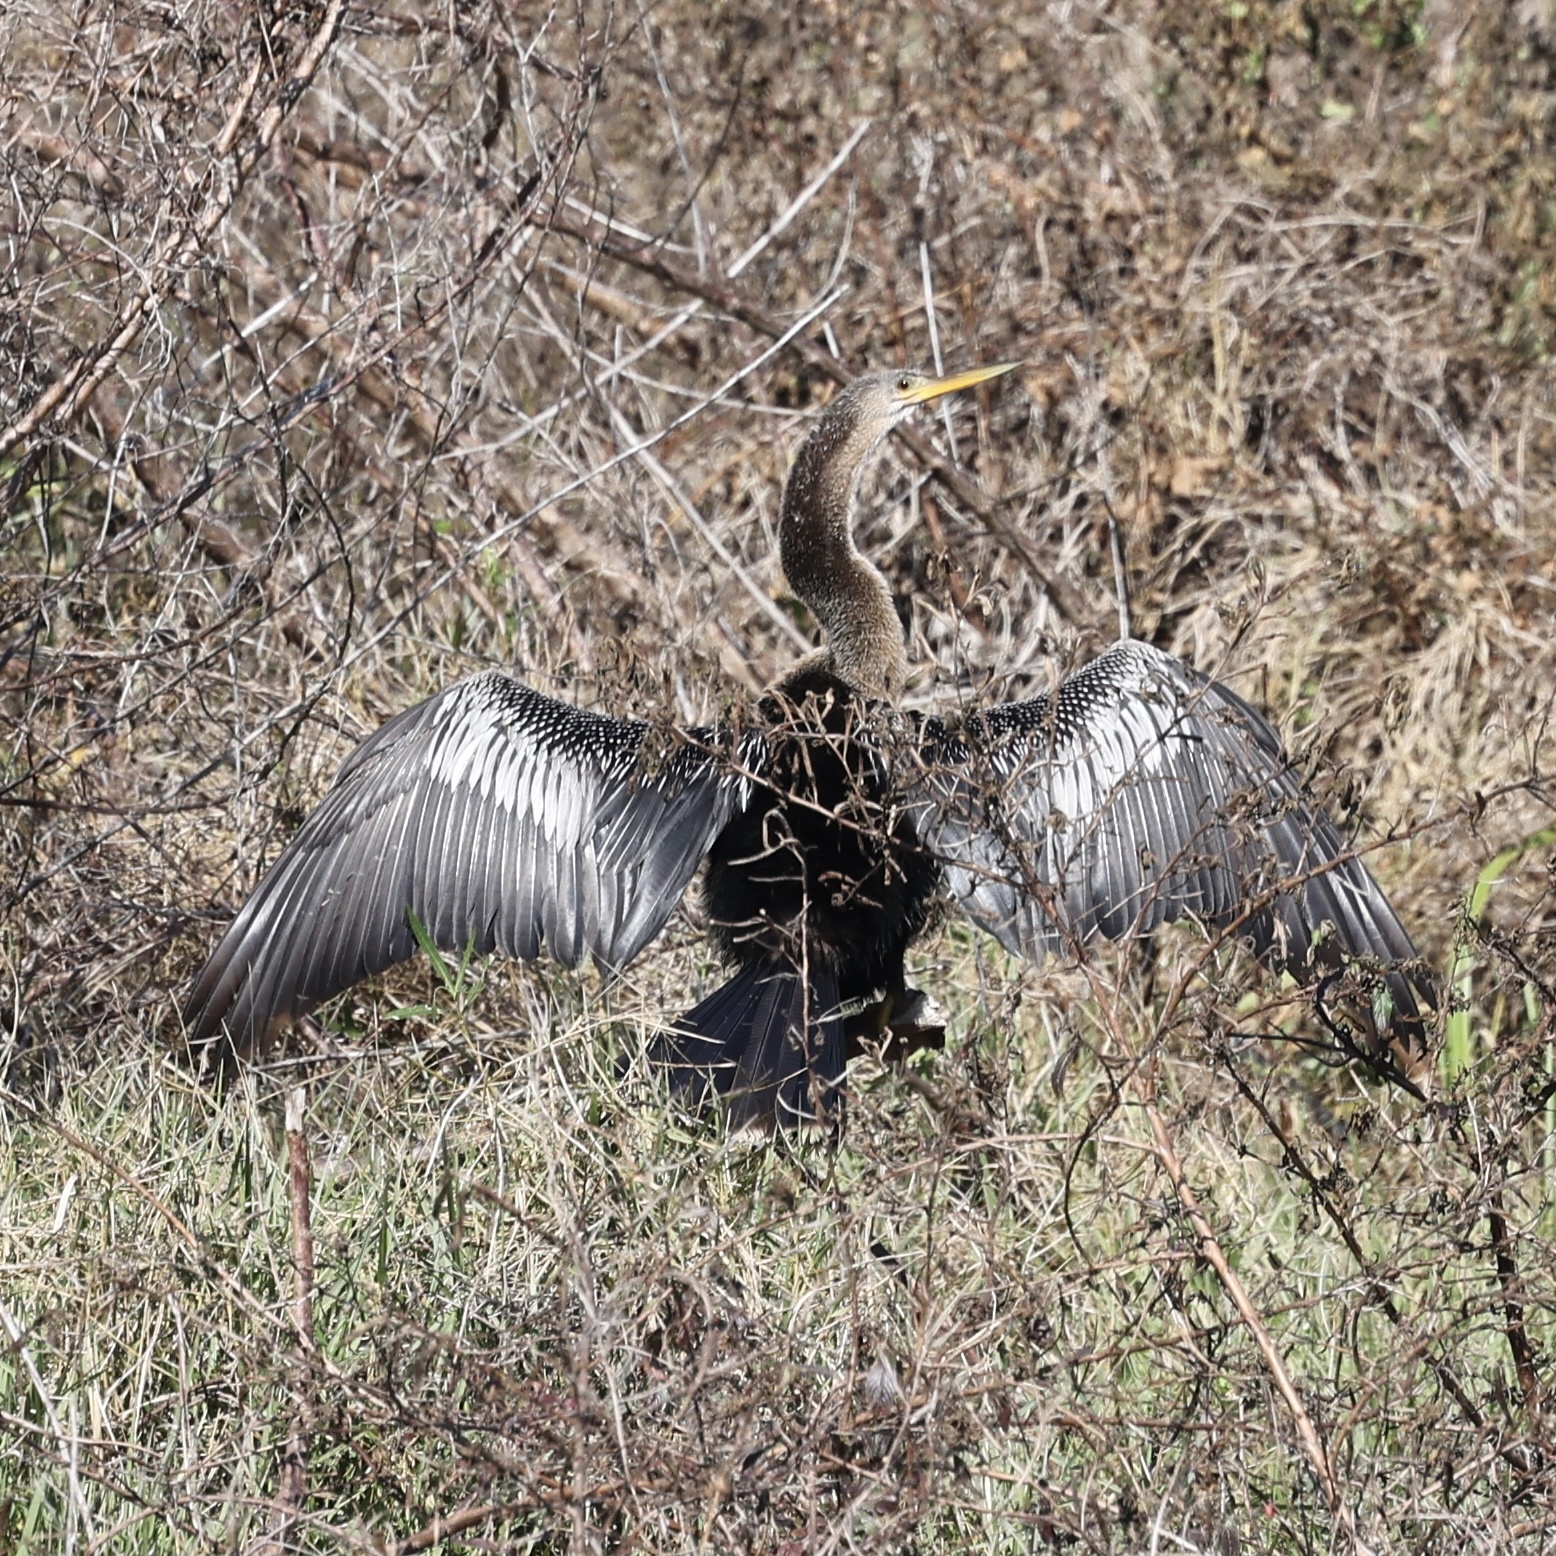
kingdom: Animalia
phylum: Chordata
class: Aves
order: Suliformes
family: Anhingidae
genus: Anhinga
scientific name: Anhinga anhinga
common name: Anhinga
